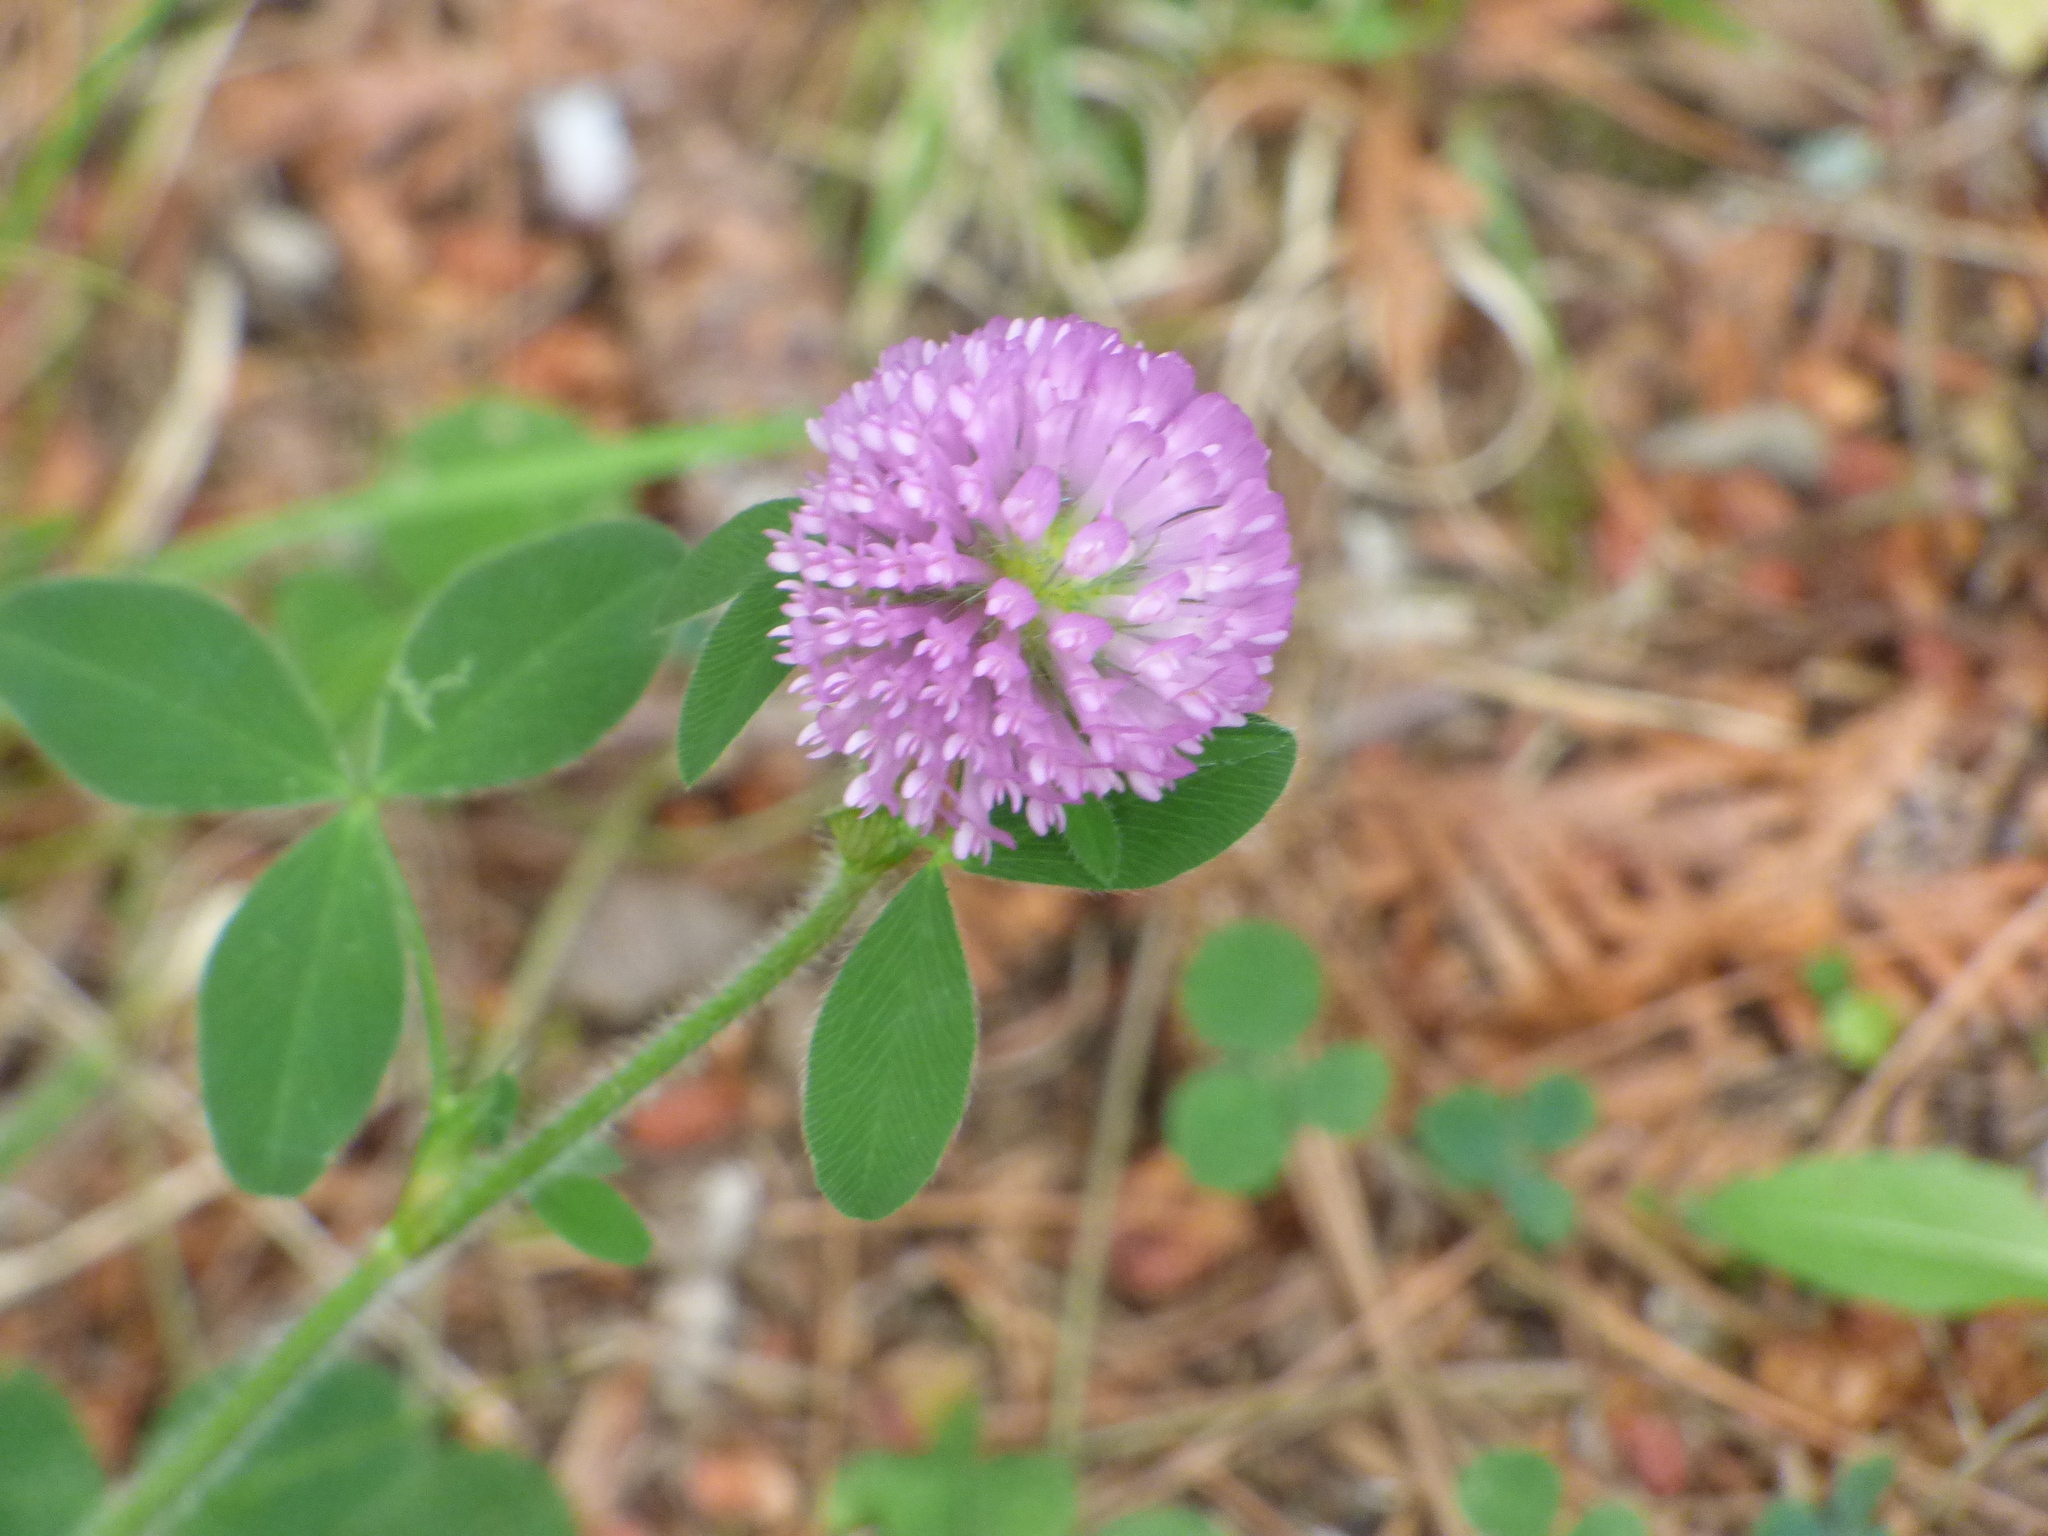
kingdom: Plantae
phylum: Tracheophyta
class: Magnoliopsida
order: Fabales
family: Fabaceae
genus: Trifolium
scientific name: Trifolium pratense
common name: Red clover
